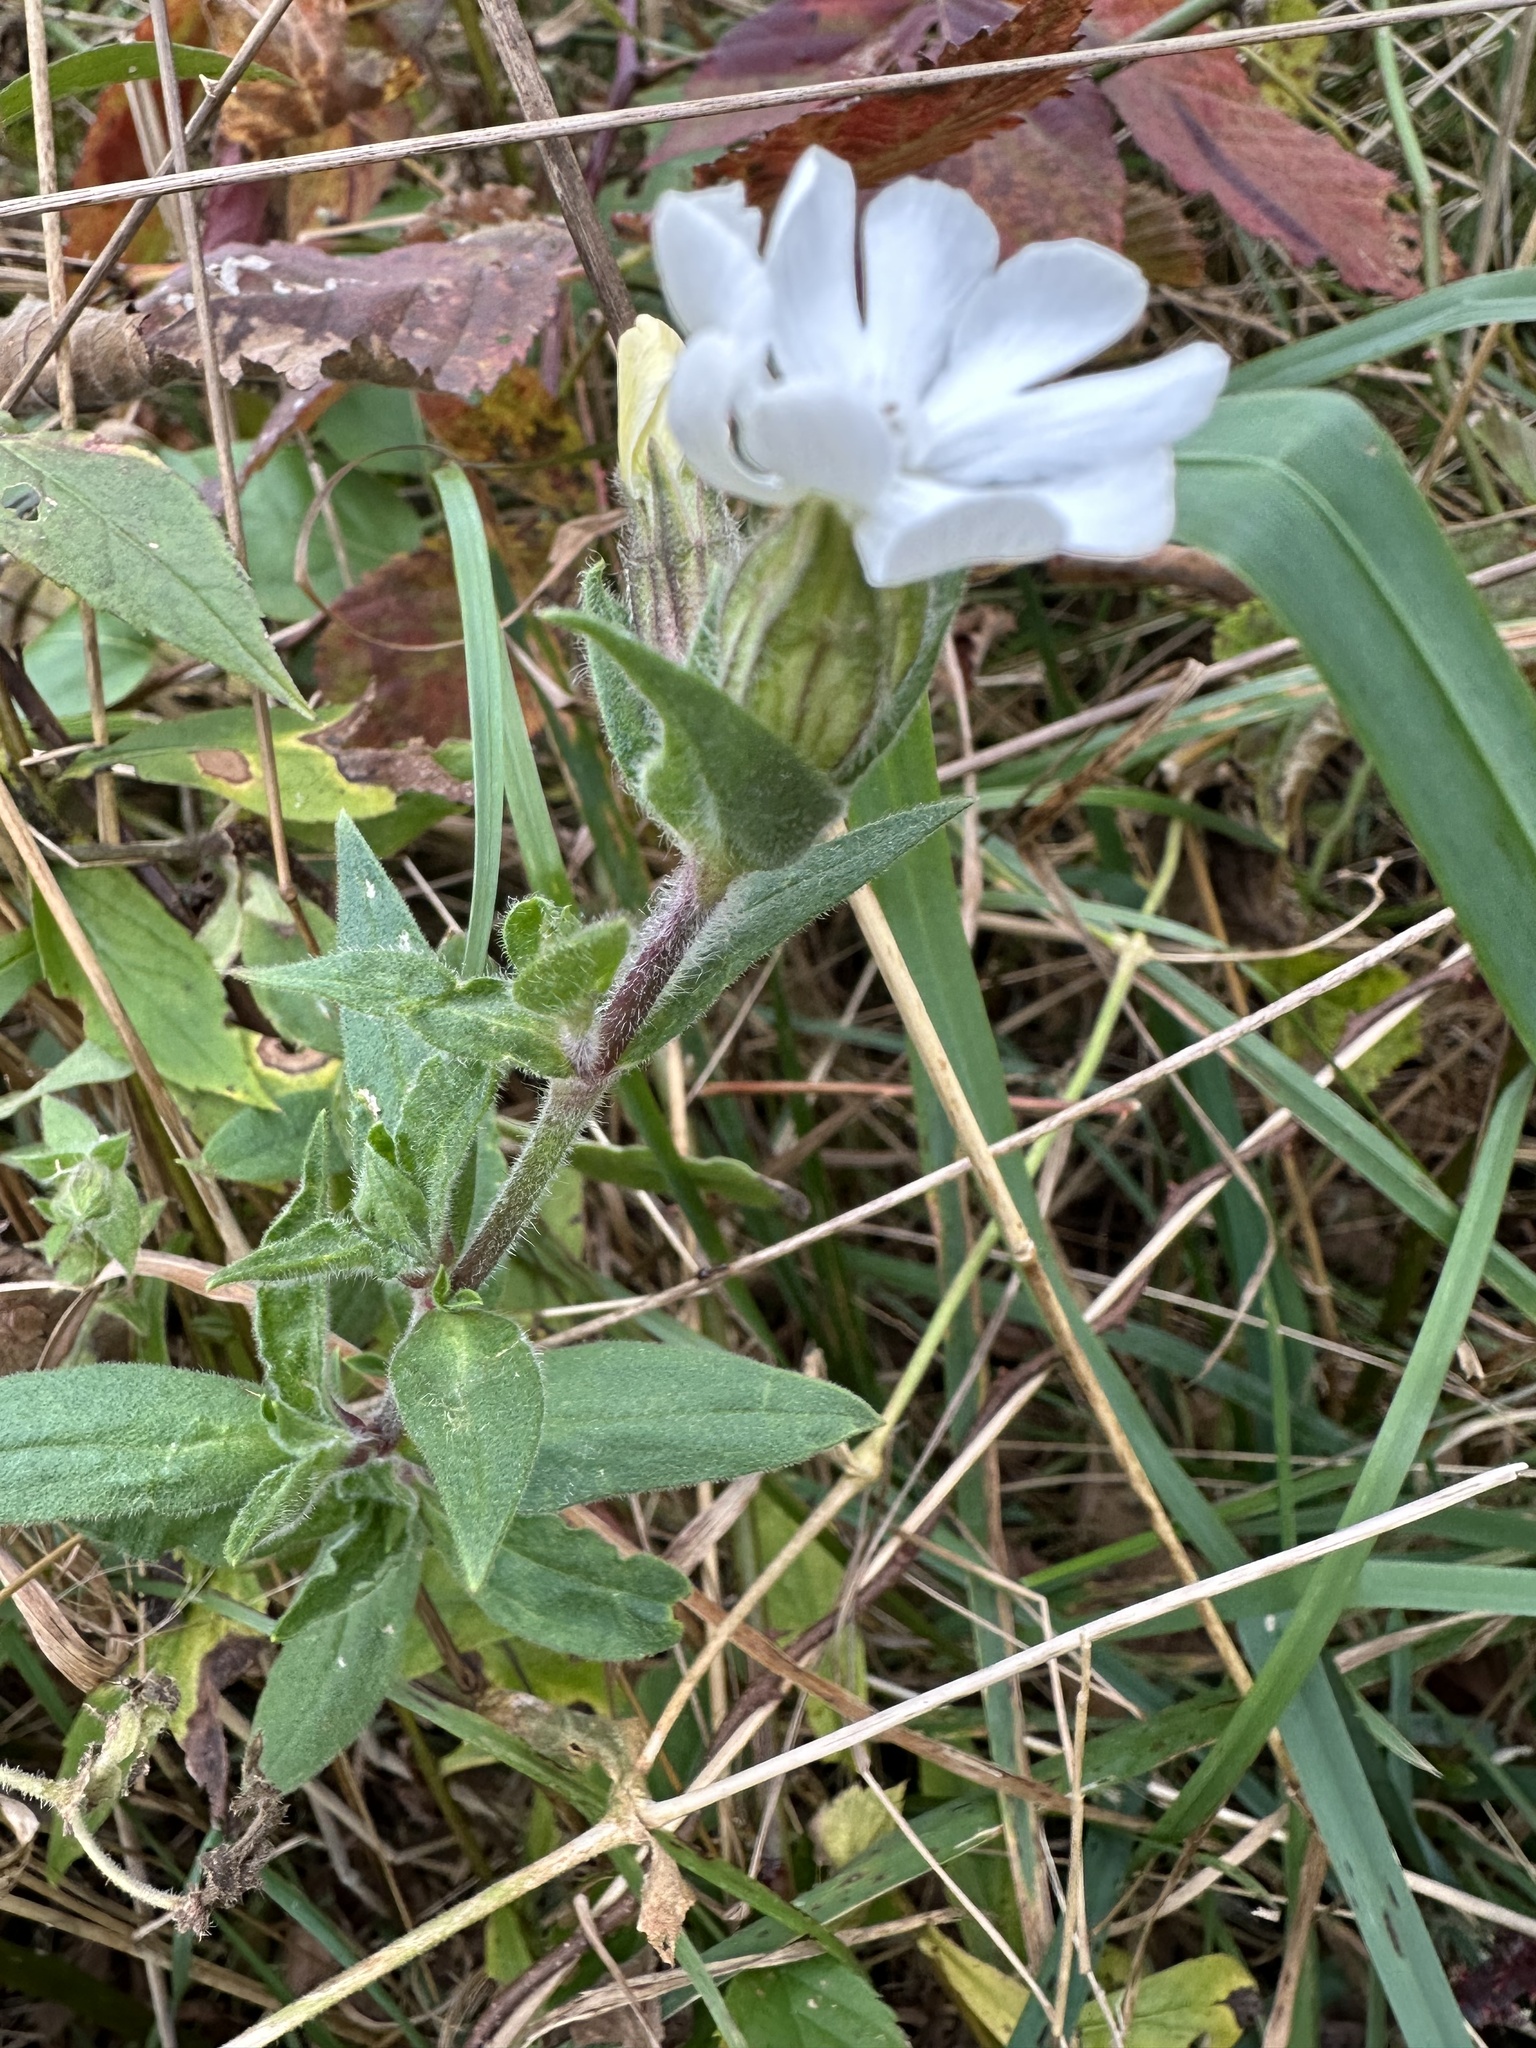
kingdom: Plantae
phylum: Tracheophyta
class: Magnoliopsida
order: Caryophyllales
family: Caryophyllaceae
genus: Silene
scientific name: Silene latifolia
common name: White campion
